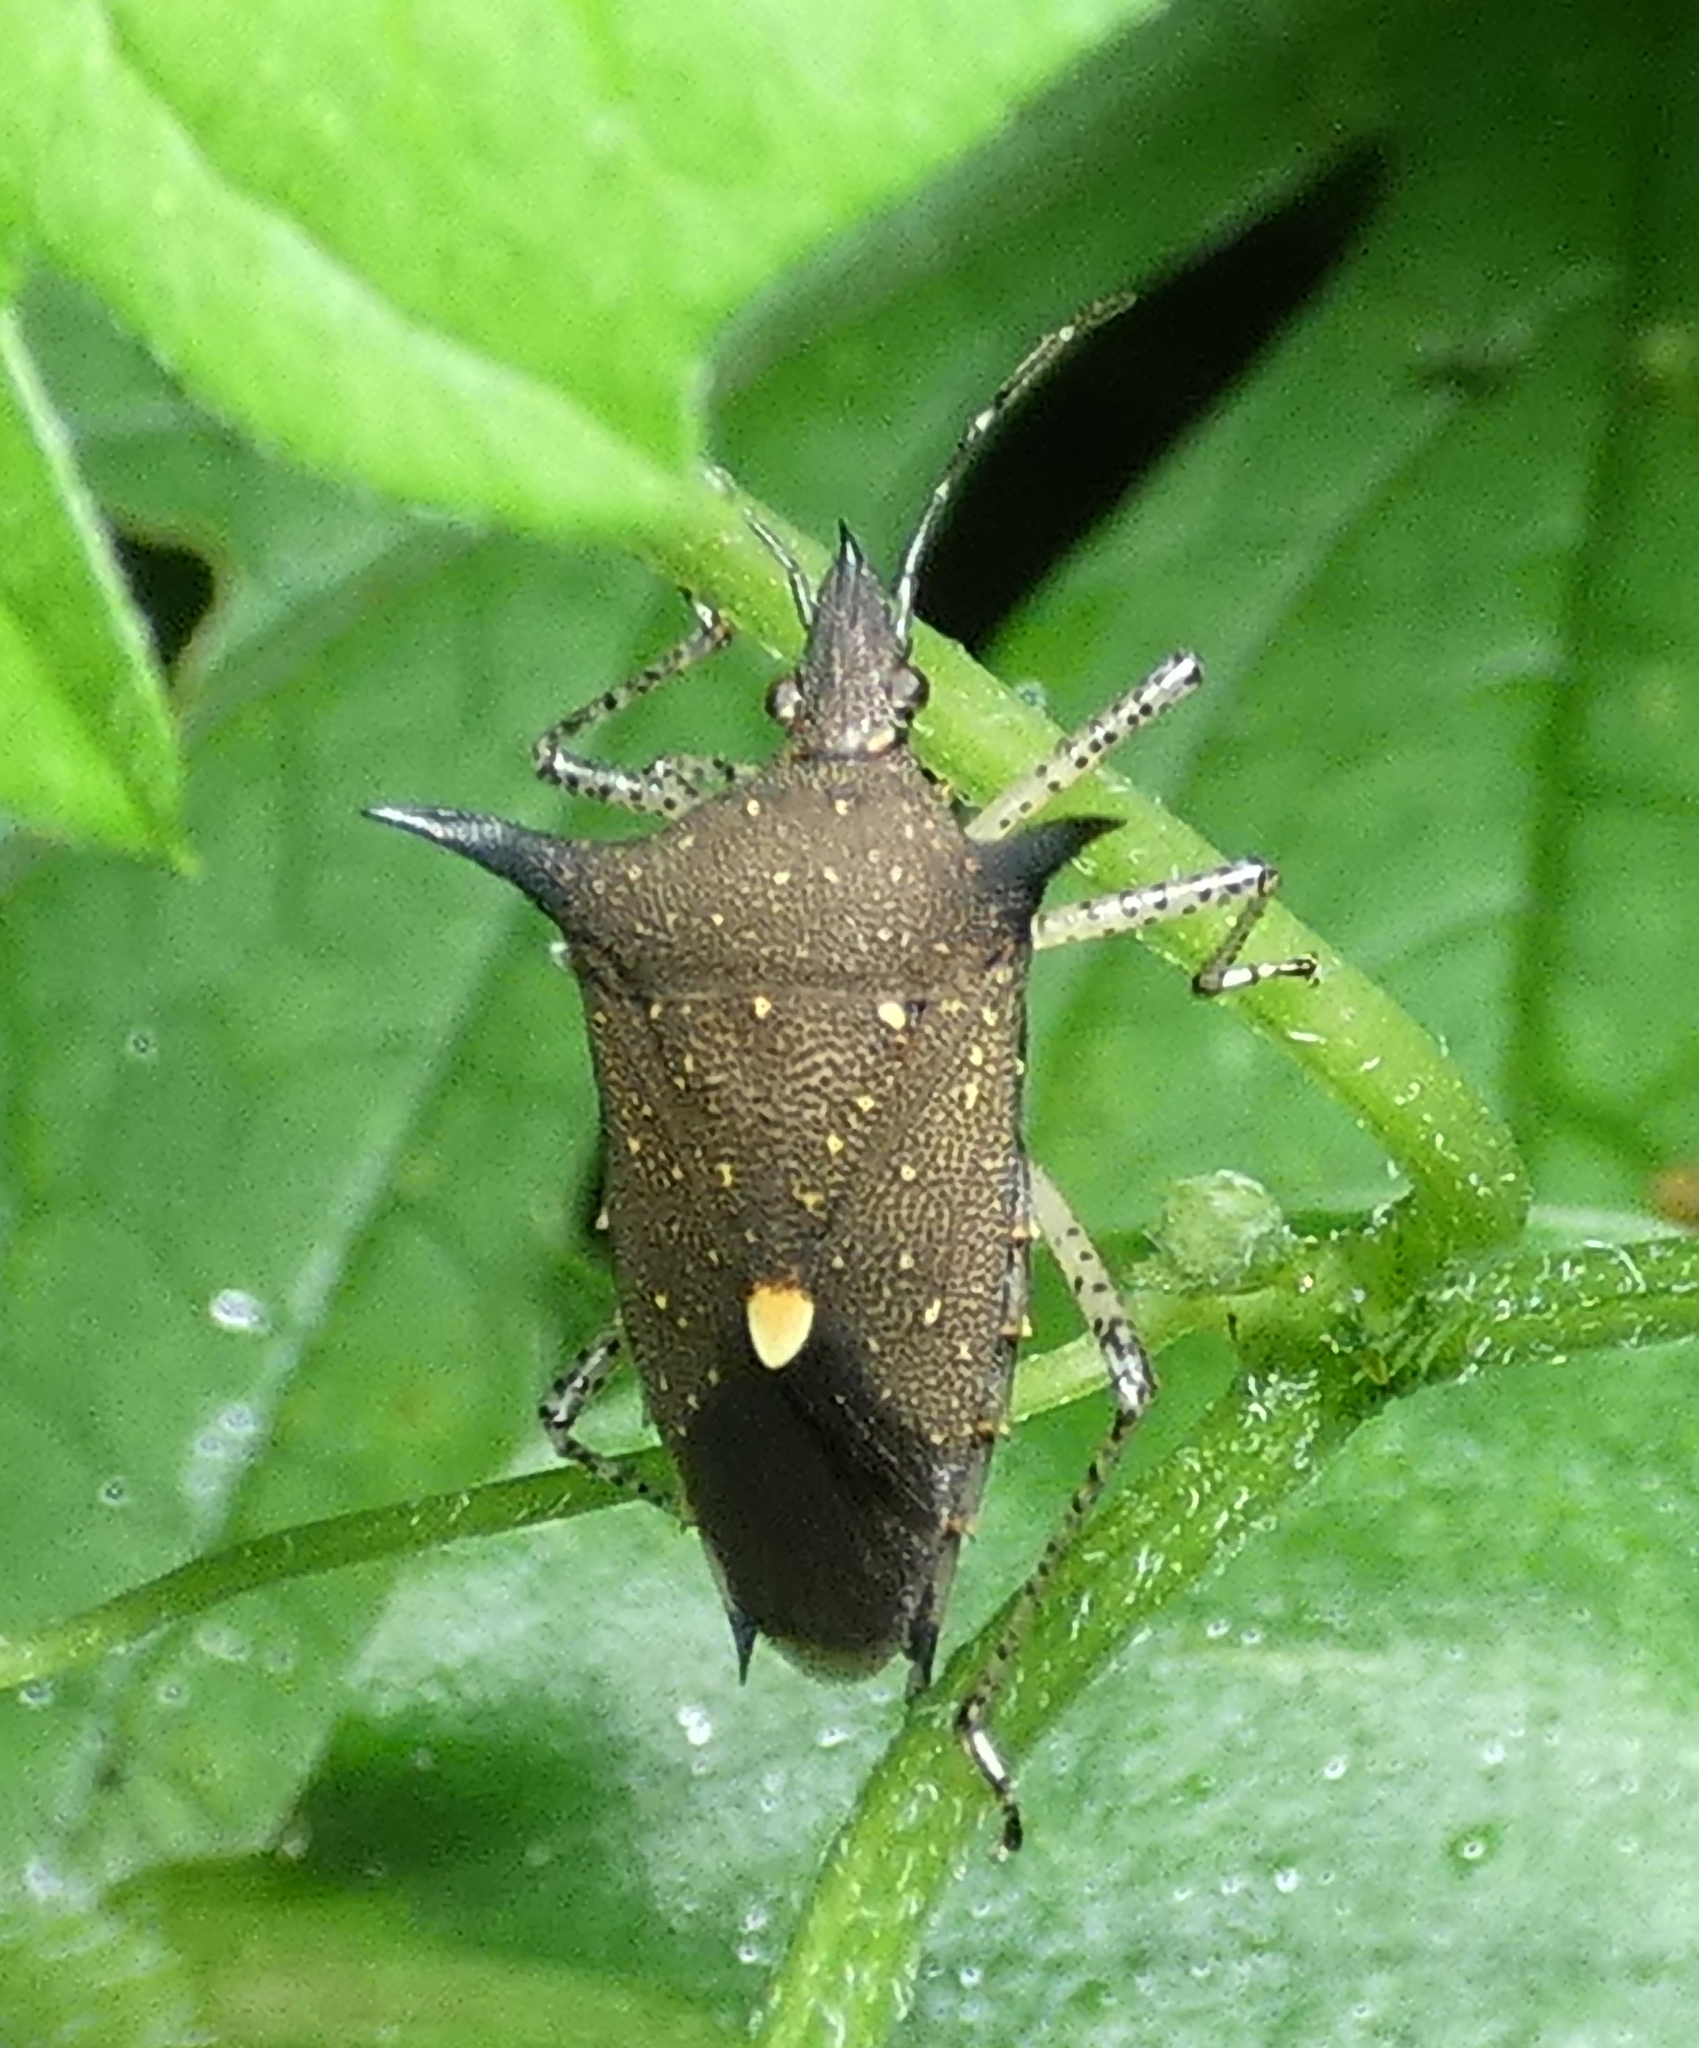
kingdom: Animalia
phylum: Arthropoda
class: Insecta
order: Hemiptera
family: Pentatomidae
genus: Proxys
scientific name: Proxys albopunctulatus
